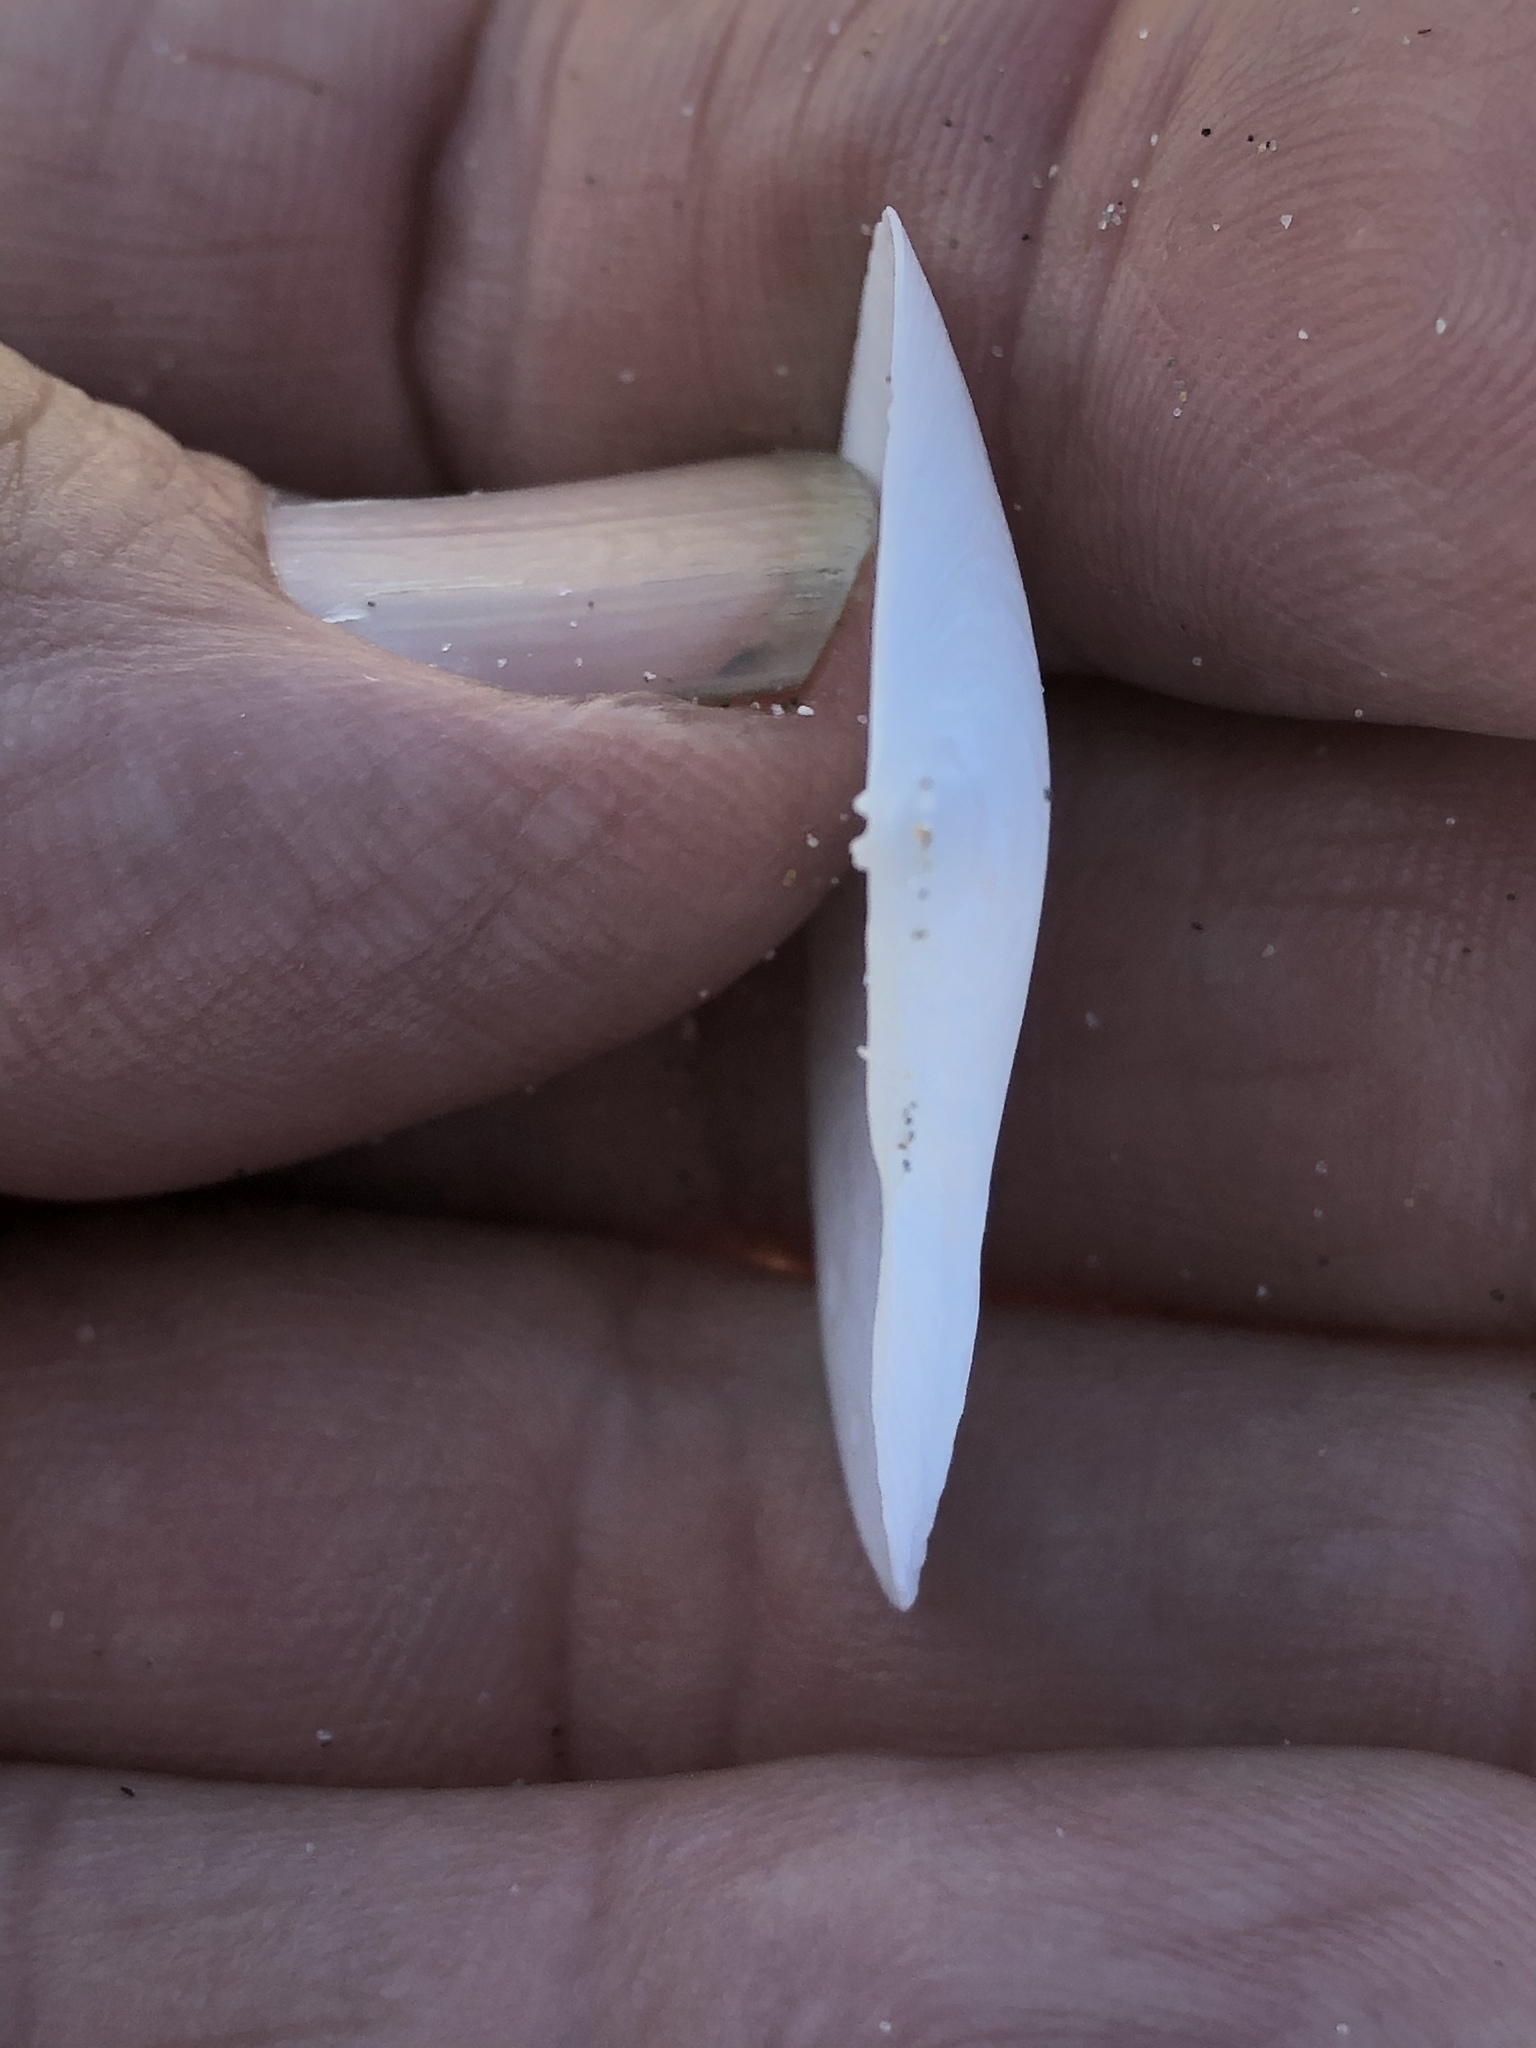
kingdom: Animalia
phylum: Mollusca
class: Bivalvia
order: Cardiida
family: Tellinidae
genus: Macoma
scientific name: Macoma nasuta
